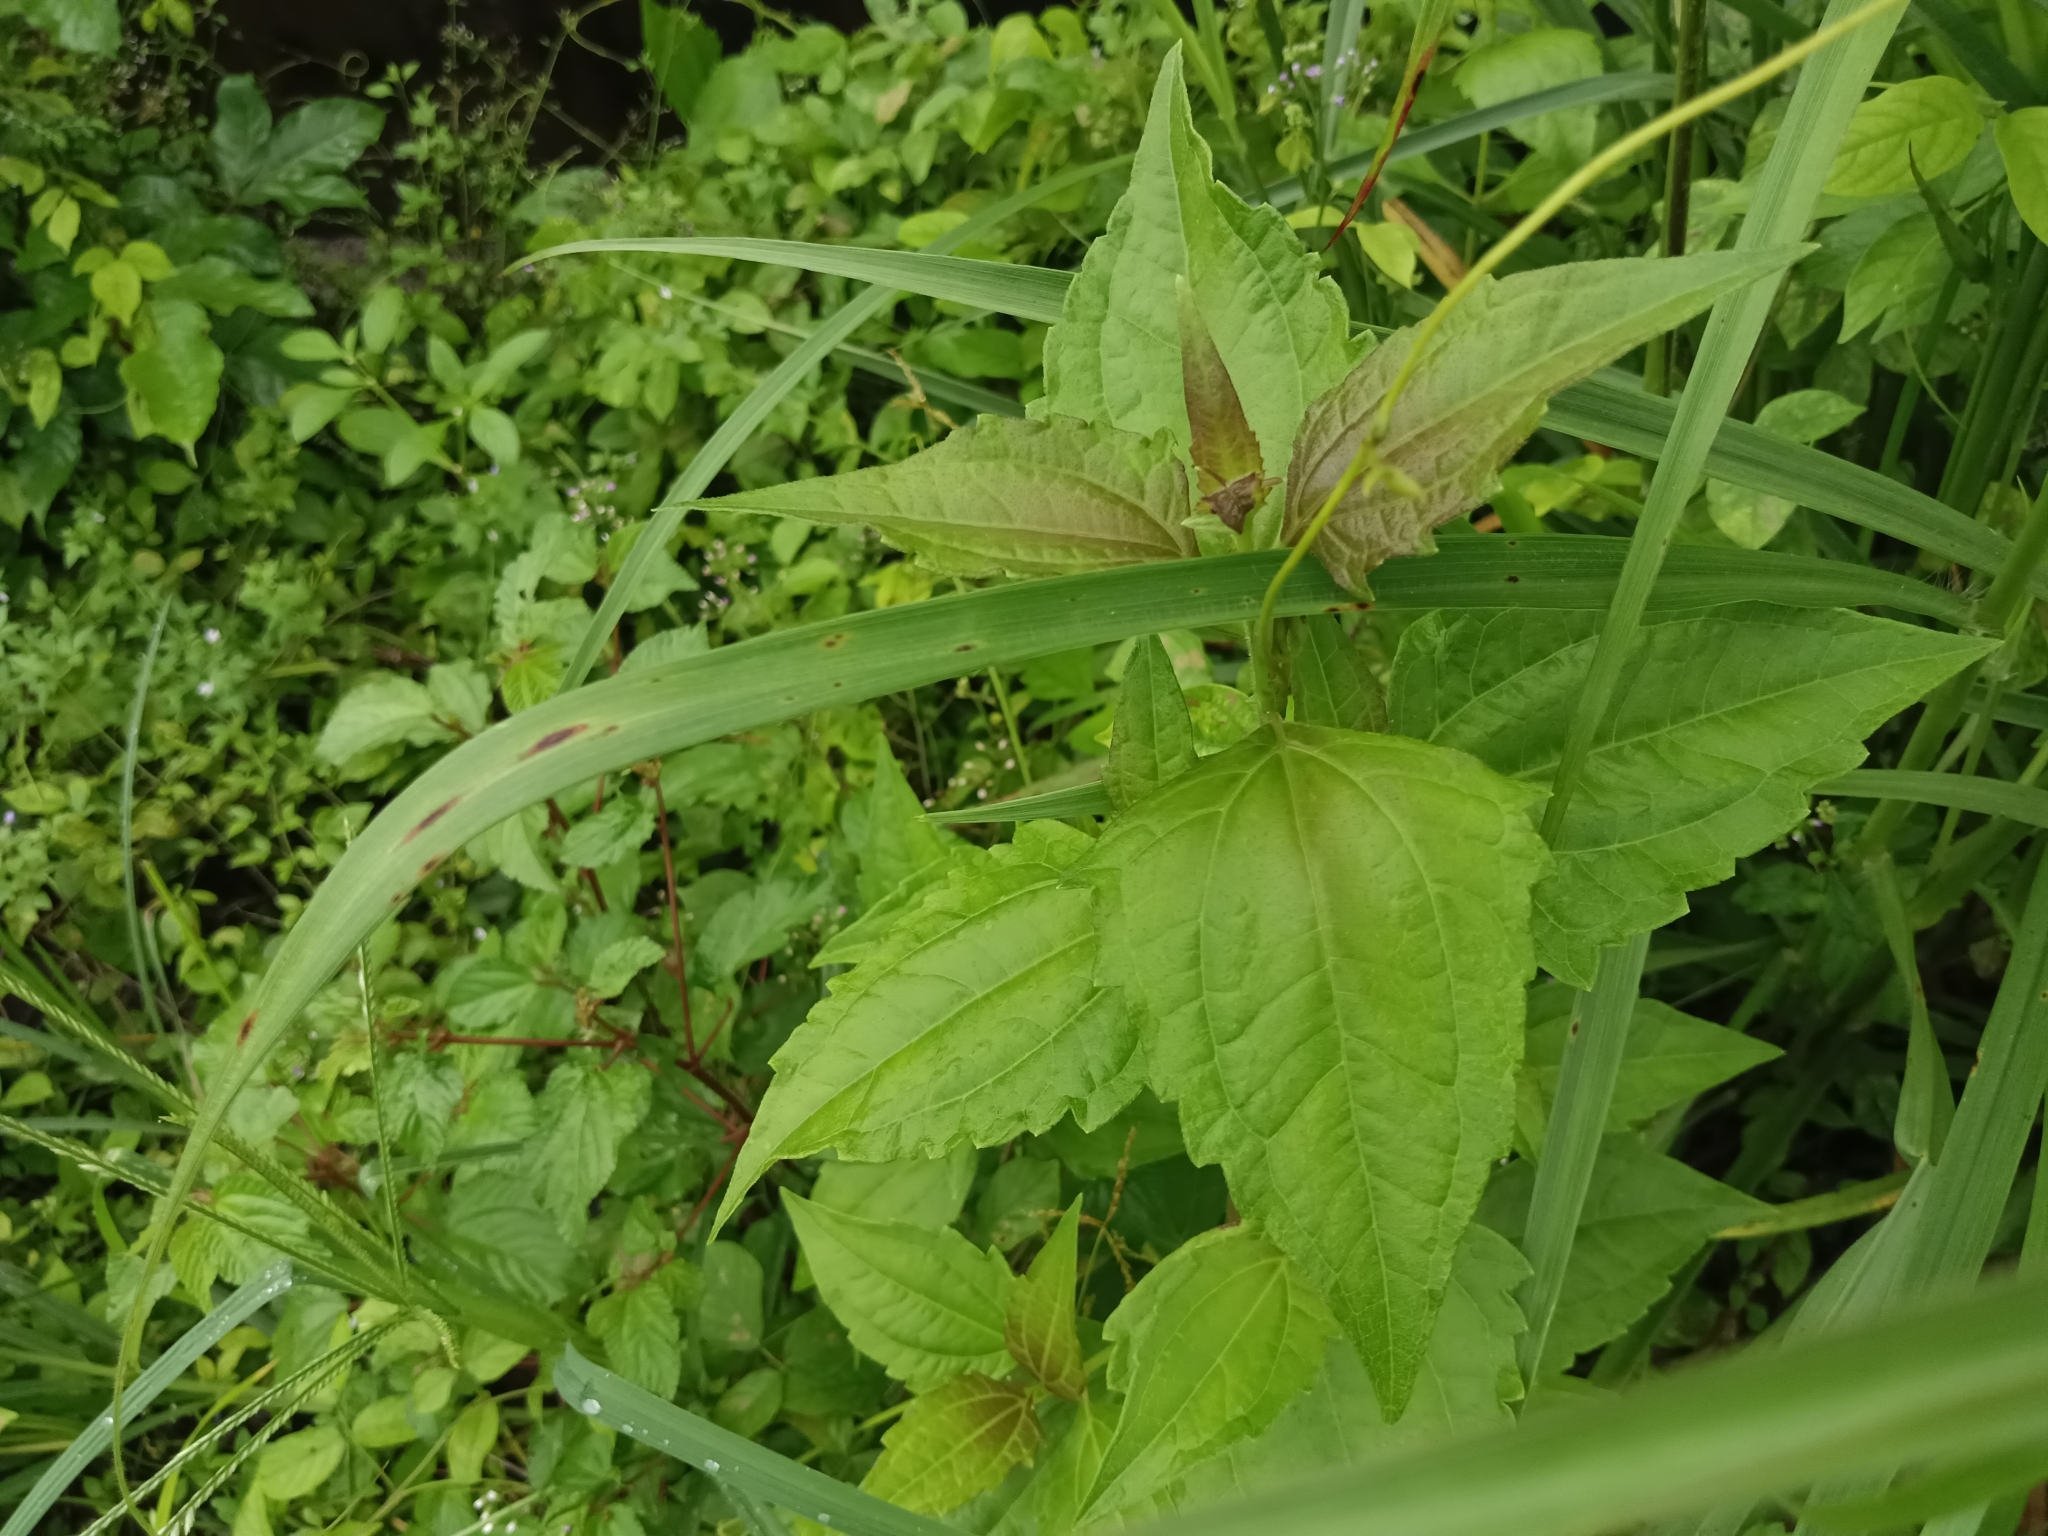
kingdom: Plantae
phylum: Tracheophyta
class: Magnoliopsida
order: Asterales
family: Asteraceae
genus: Chromolaena
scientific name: Chromolaena odorata
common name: Siamweed
